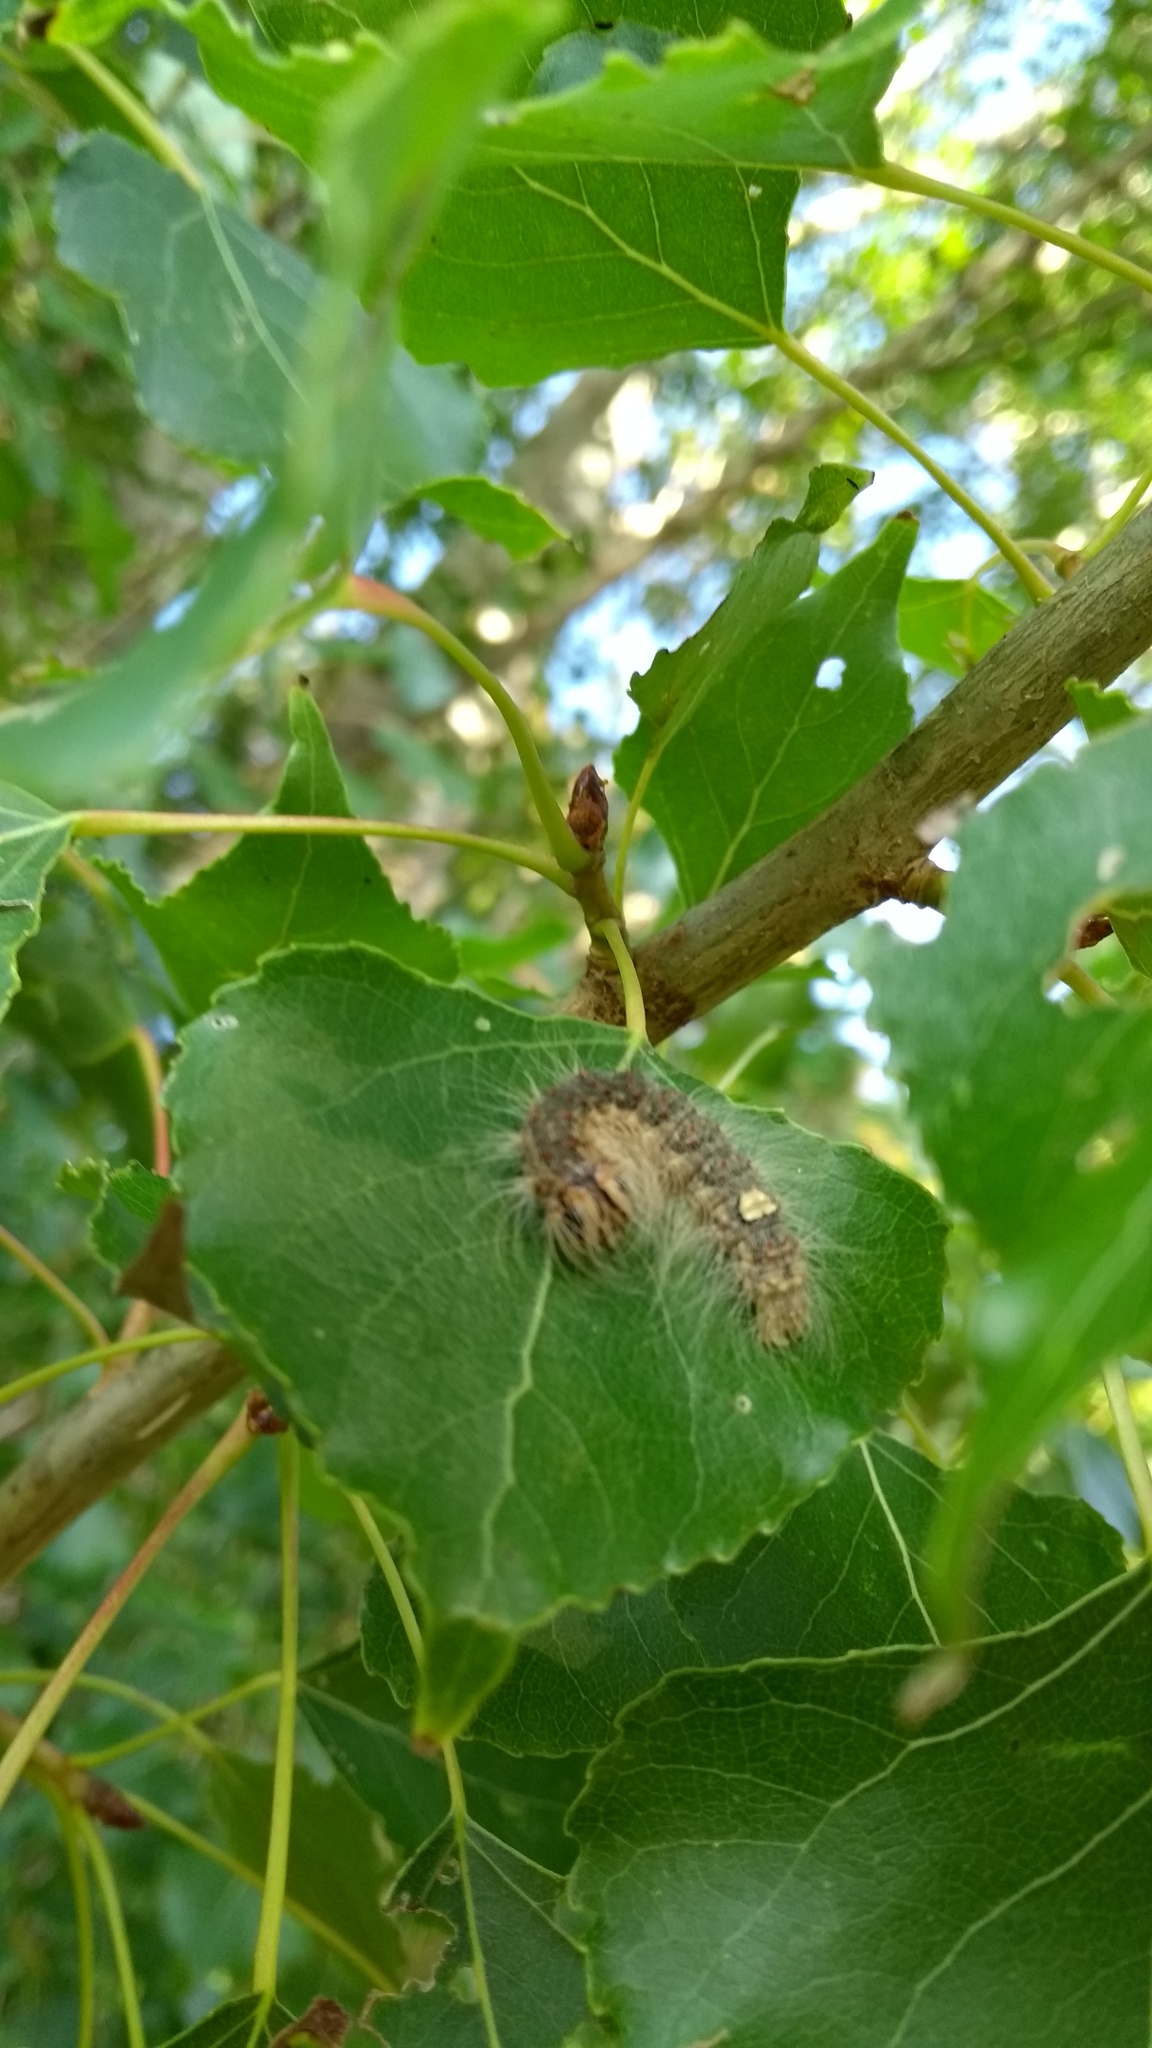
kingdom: Animalia
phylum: Arthropoda
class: Insecta
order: Lepidoptera
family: Noctuidae
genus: Acronicta
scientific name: Acronicta megacephala
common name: Poplar grey
